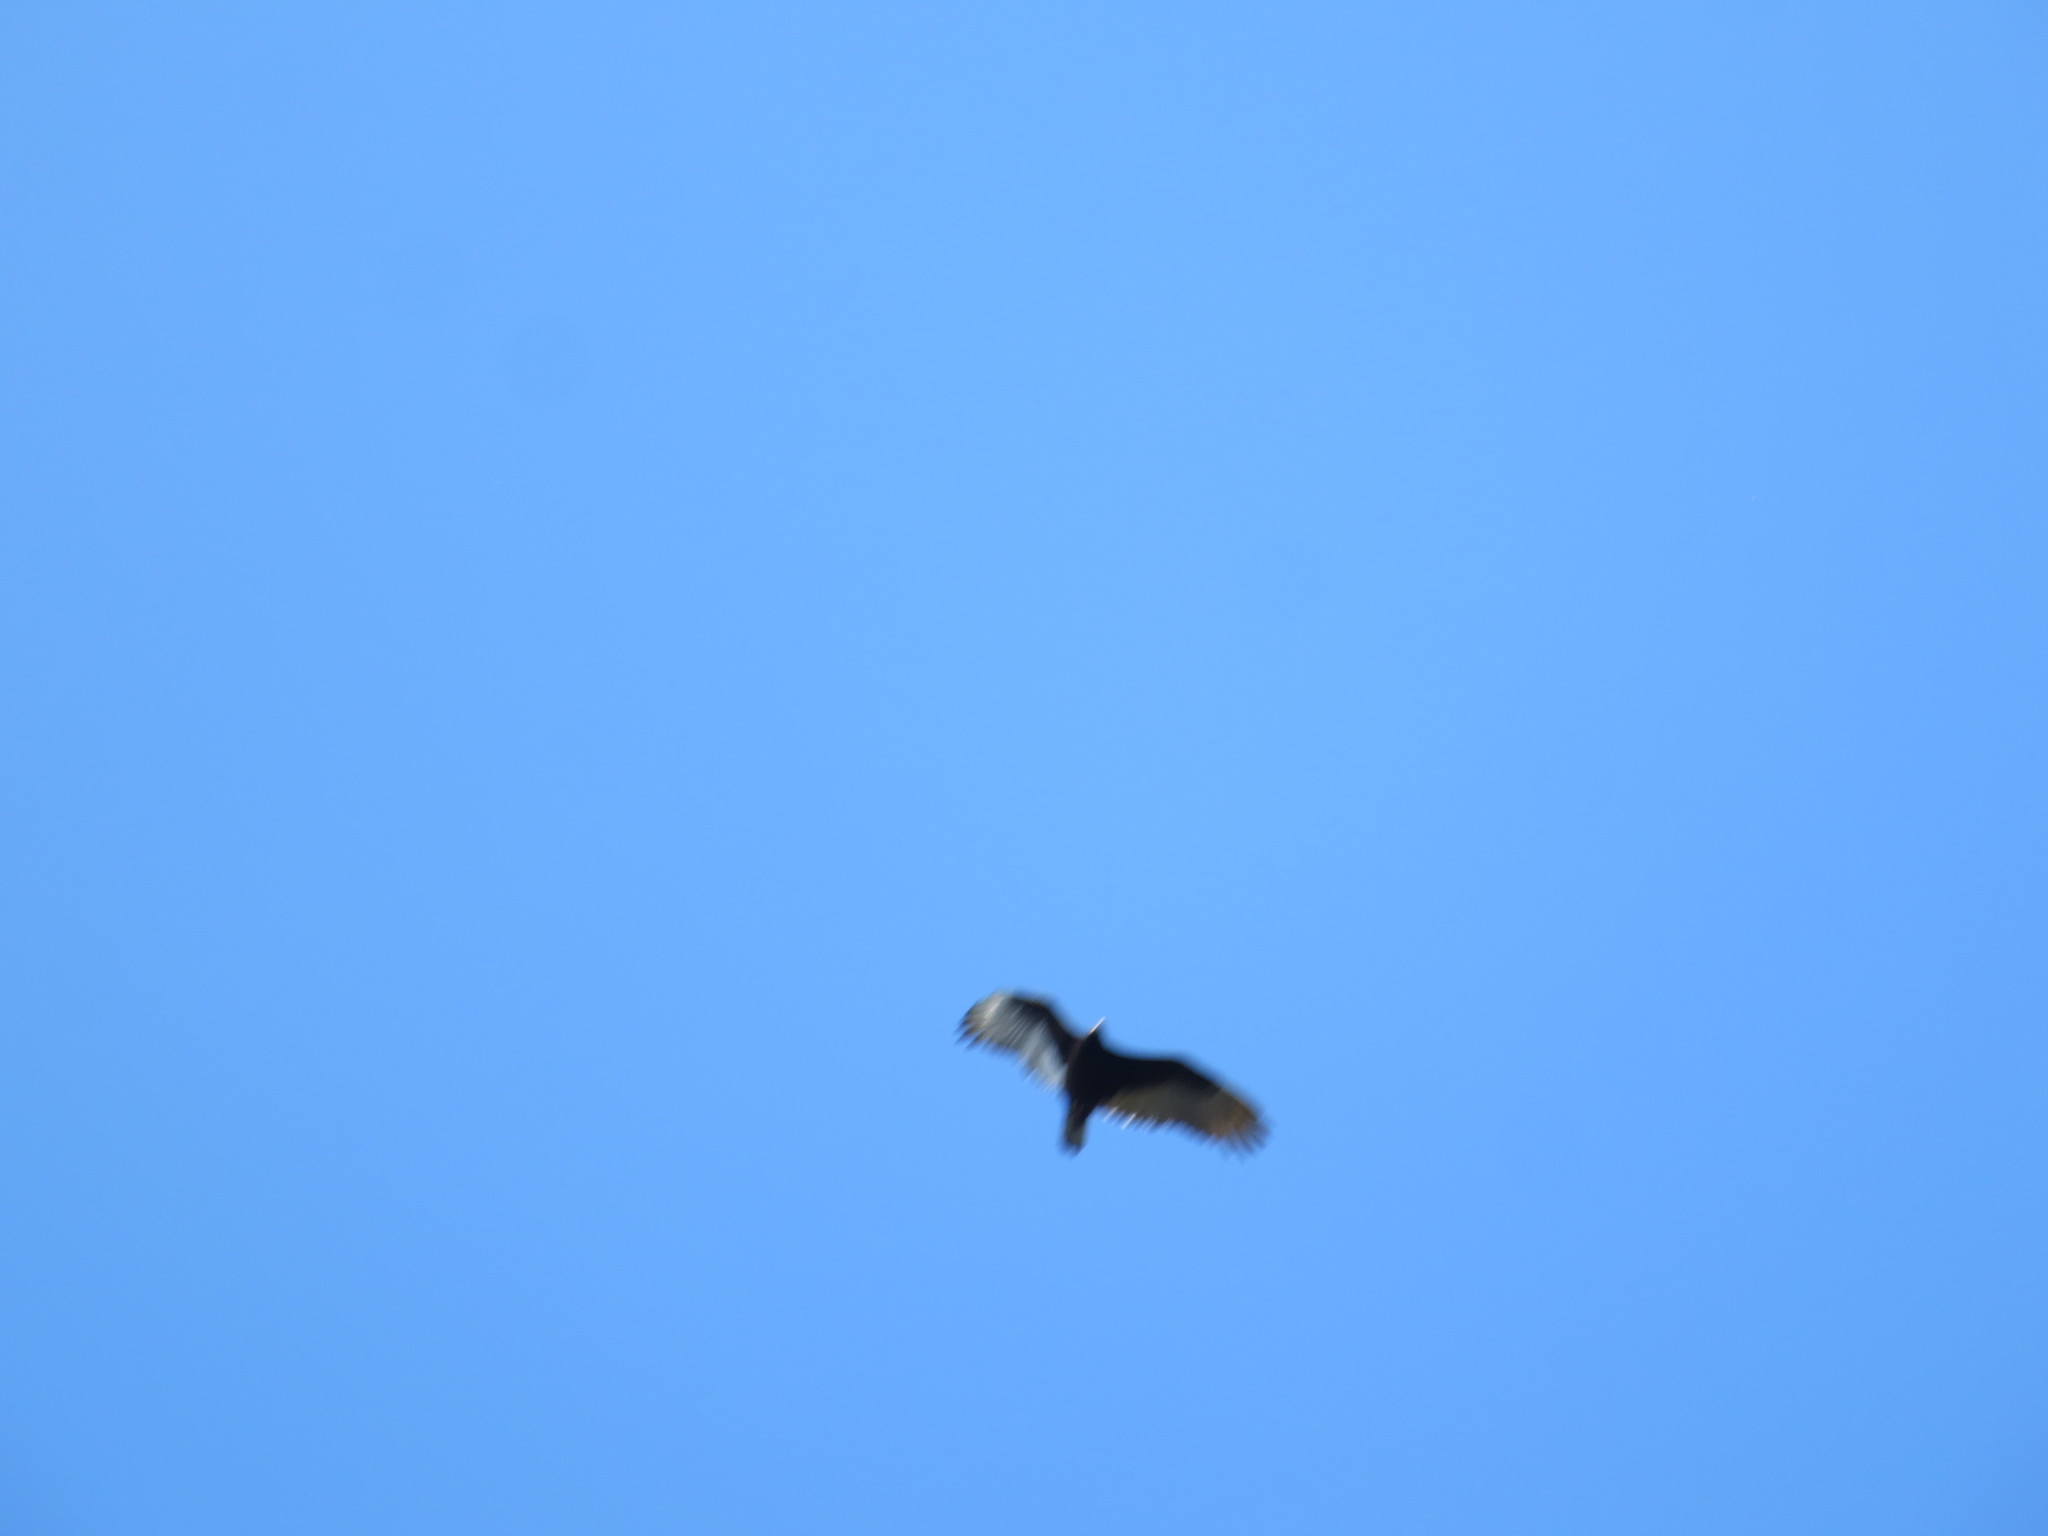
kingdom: Animalia
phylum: Chordata
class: Aves
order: Accipitriformes
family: Cathartidae
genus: Cathartes
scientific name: Cathartes aura
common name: Turkey vulture
